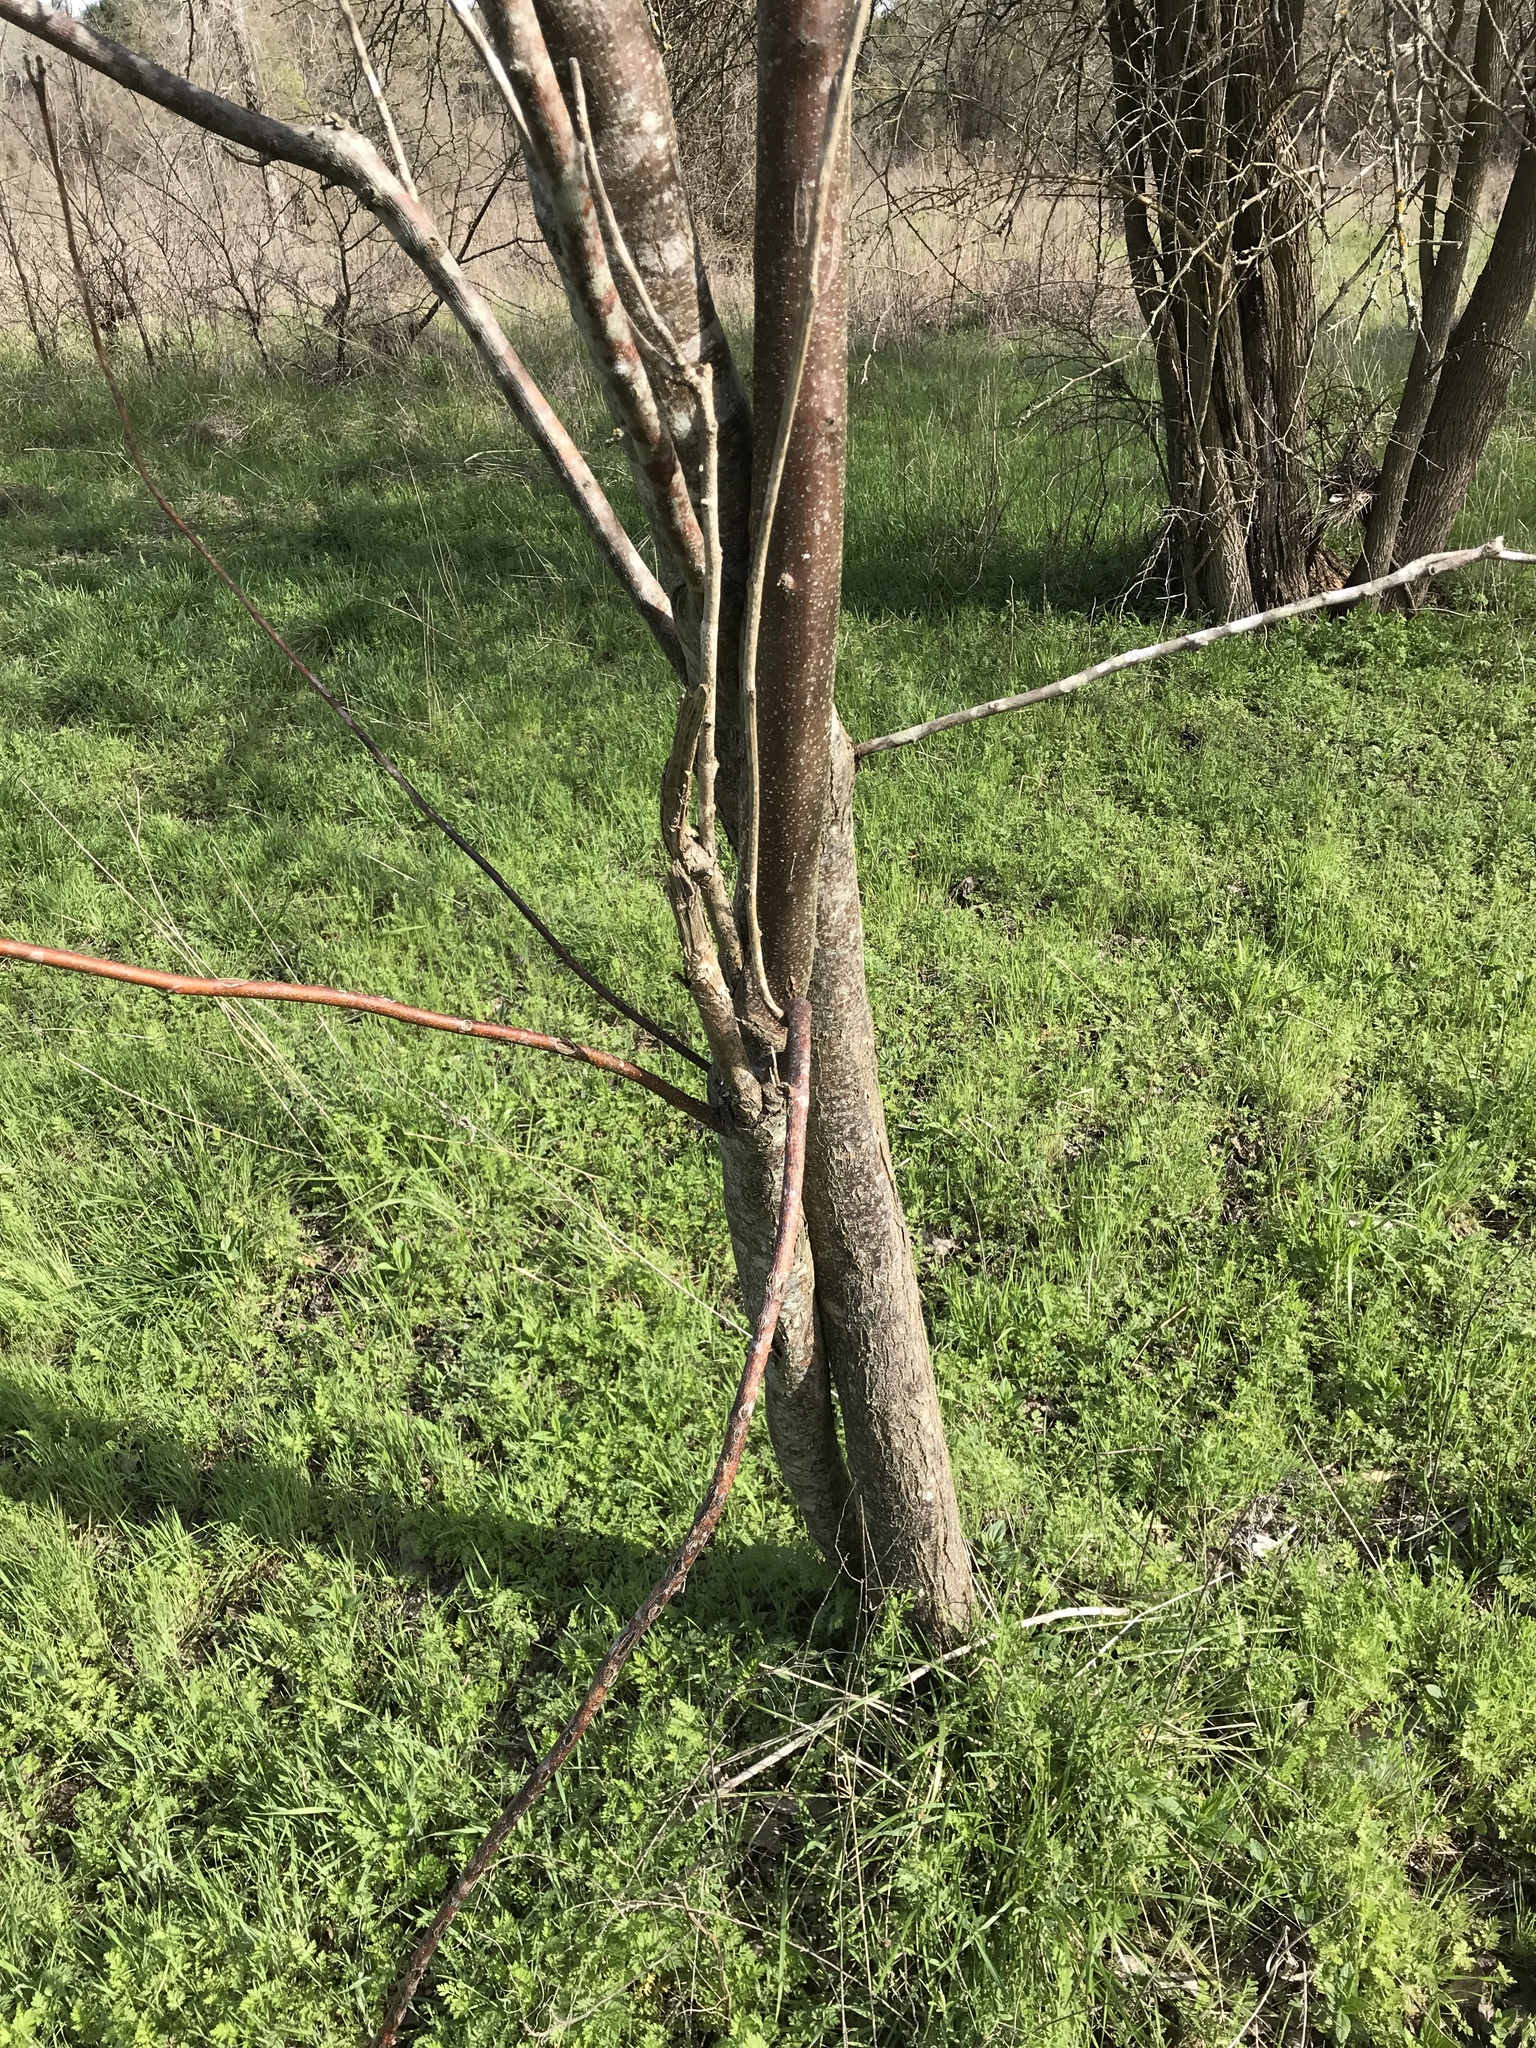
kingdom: Plantae
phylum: Tracheophyta
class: Magnoliopsida
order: Sapindales
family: Meliaceae
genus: Melia
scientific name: Melia azedarach
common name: Chinaberrytree
